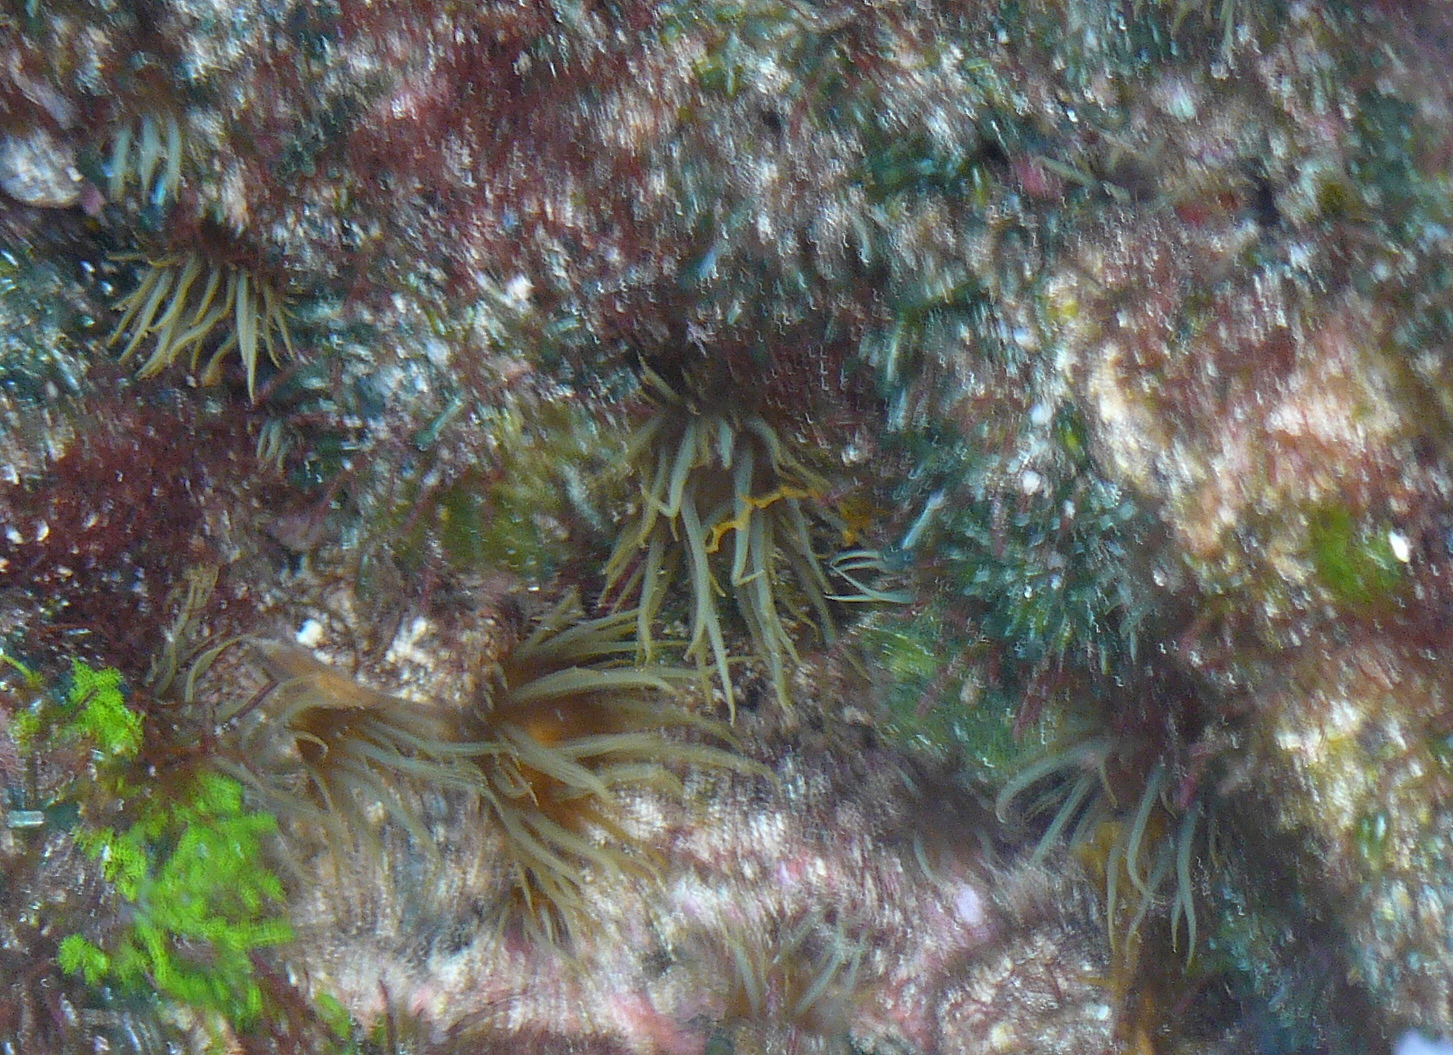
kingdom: Animalia
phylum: Cnidaria
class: Anthozoa
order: Actiniaria
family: Aiptasiidae
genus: Exaiptasia
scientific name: Exaiptasia diaphana
